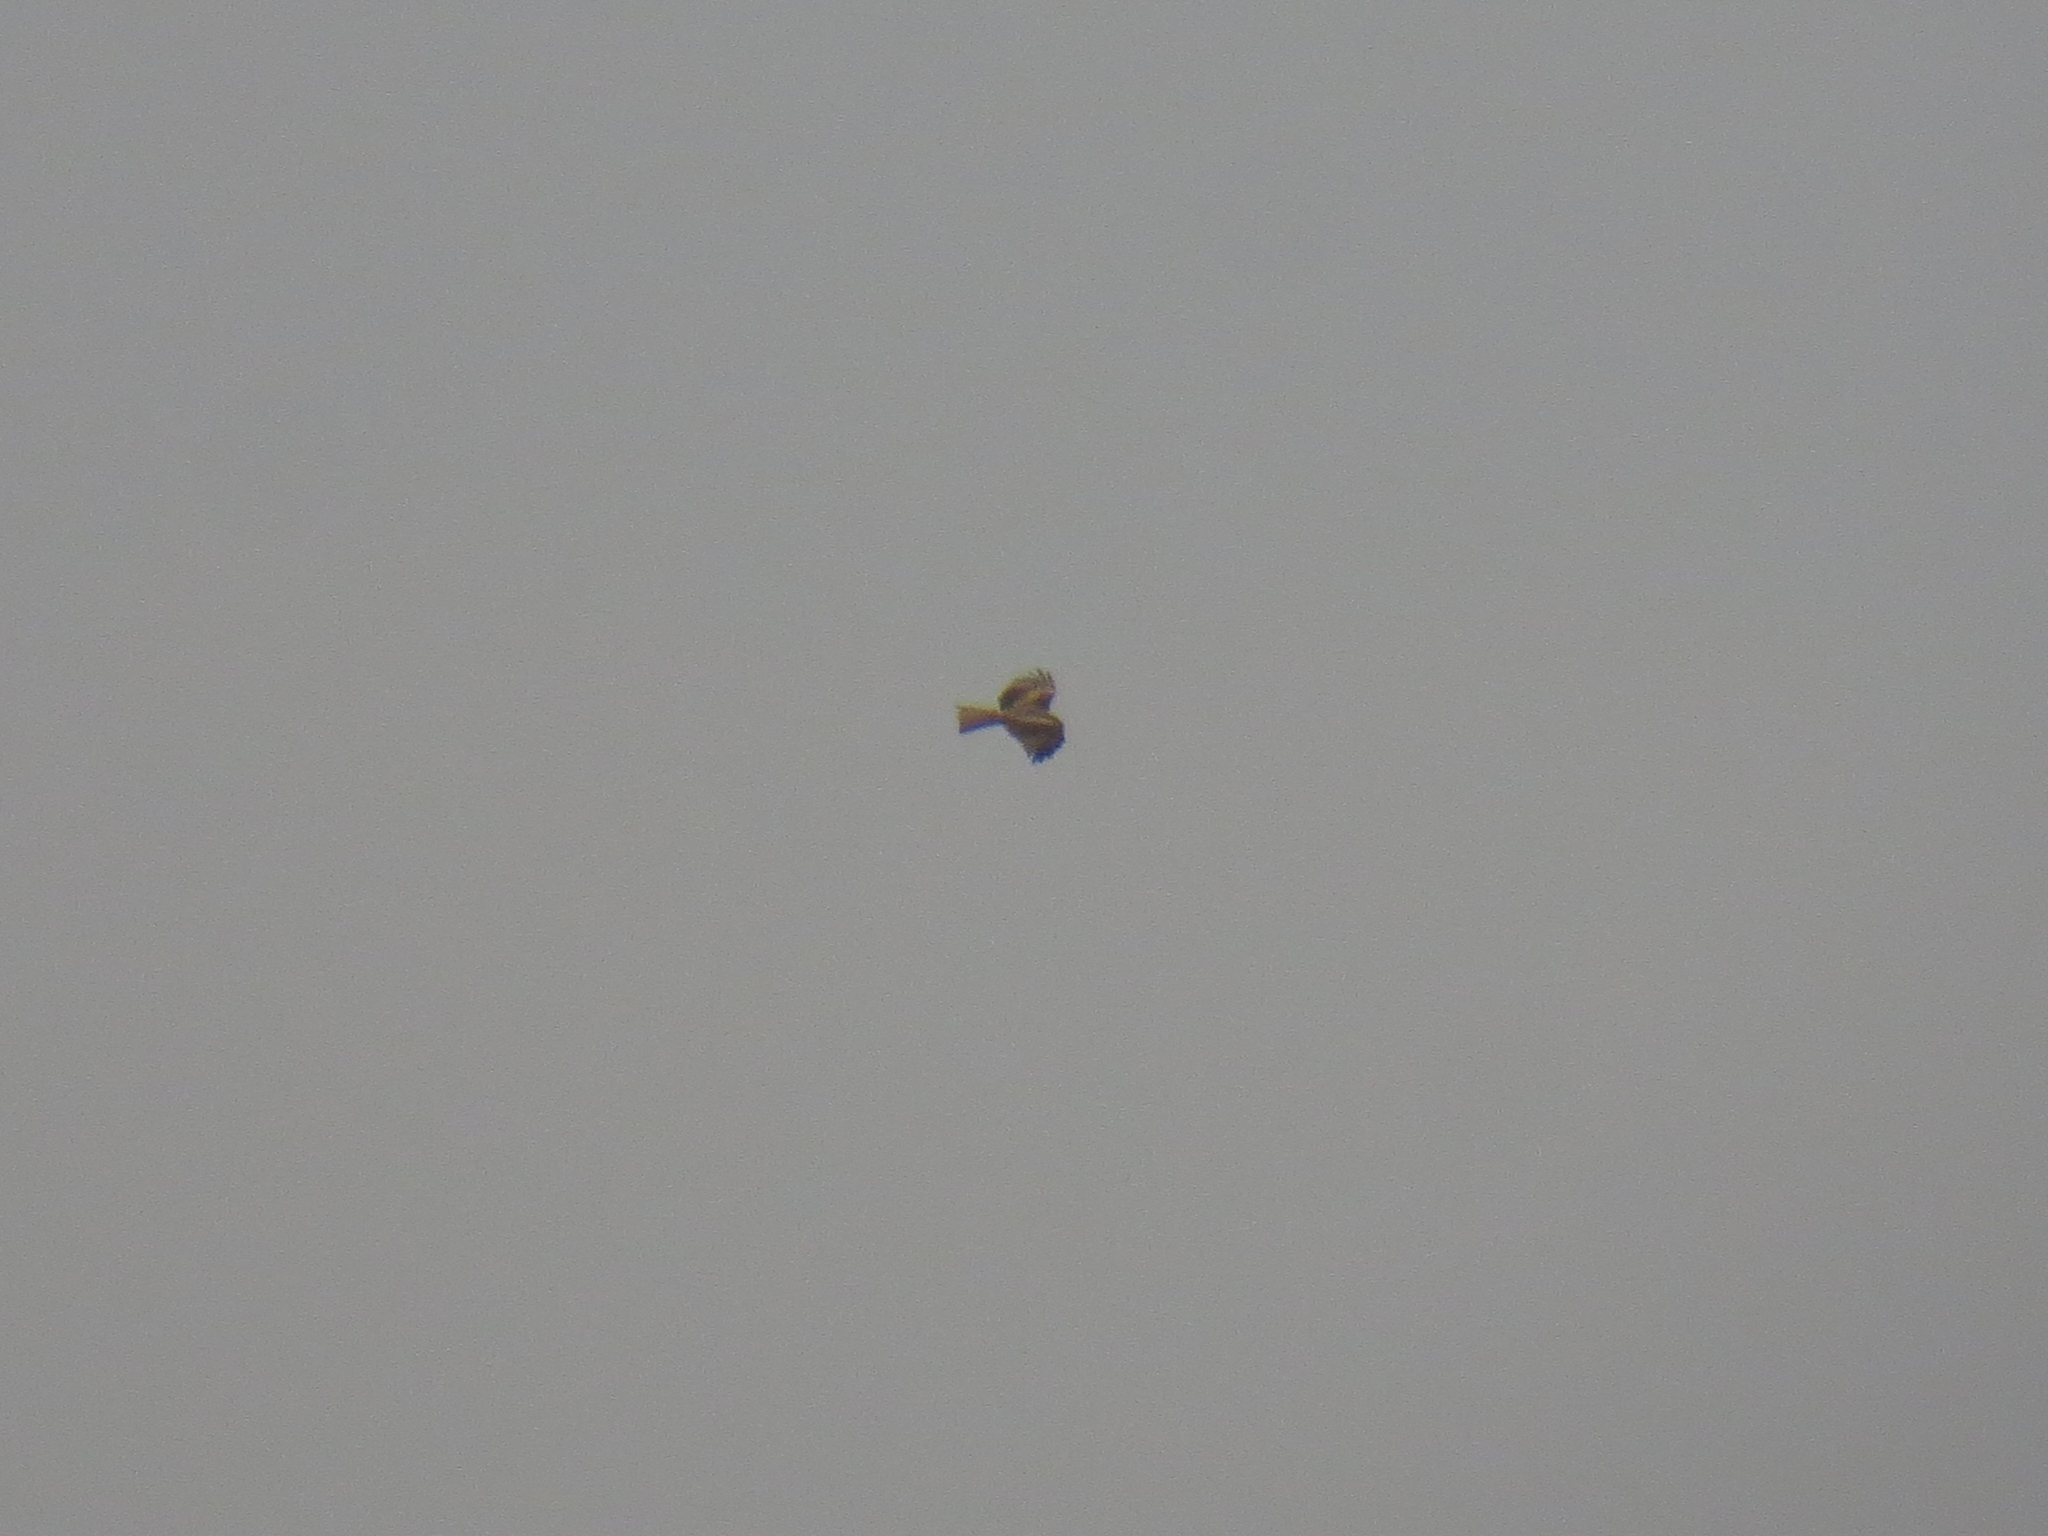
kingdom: Animalia
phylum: Chordata
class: Aves
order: Accipitriformes
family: Accipitridae
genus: Milvus
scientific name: Milvus migrans
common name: Black kite
